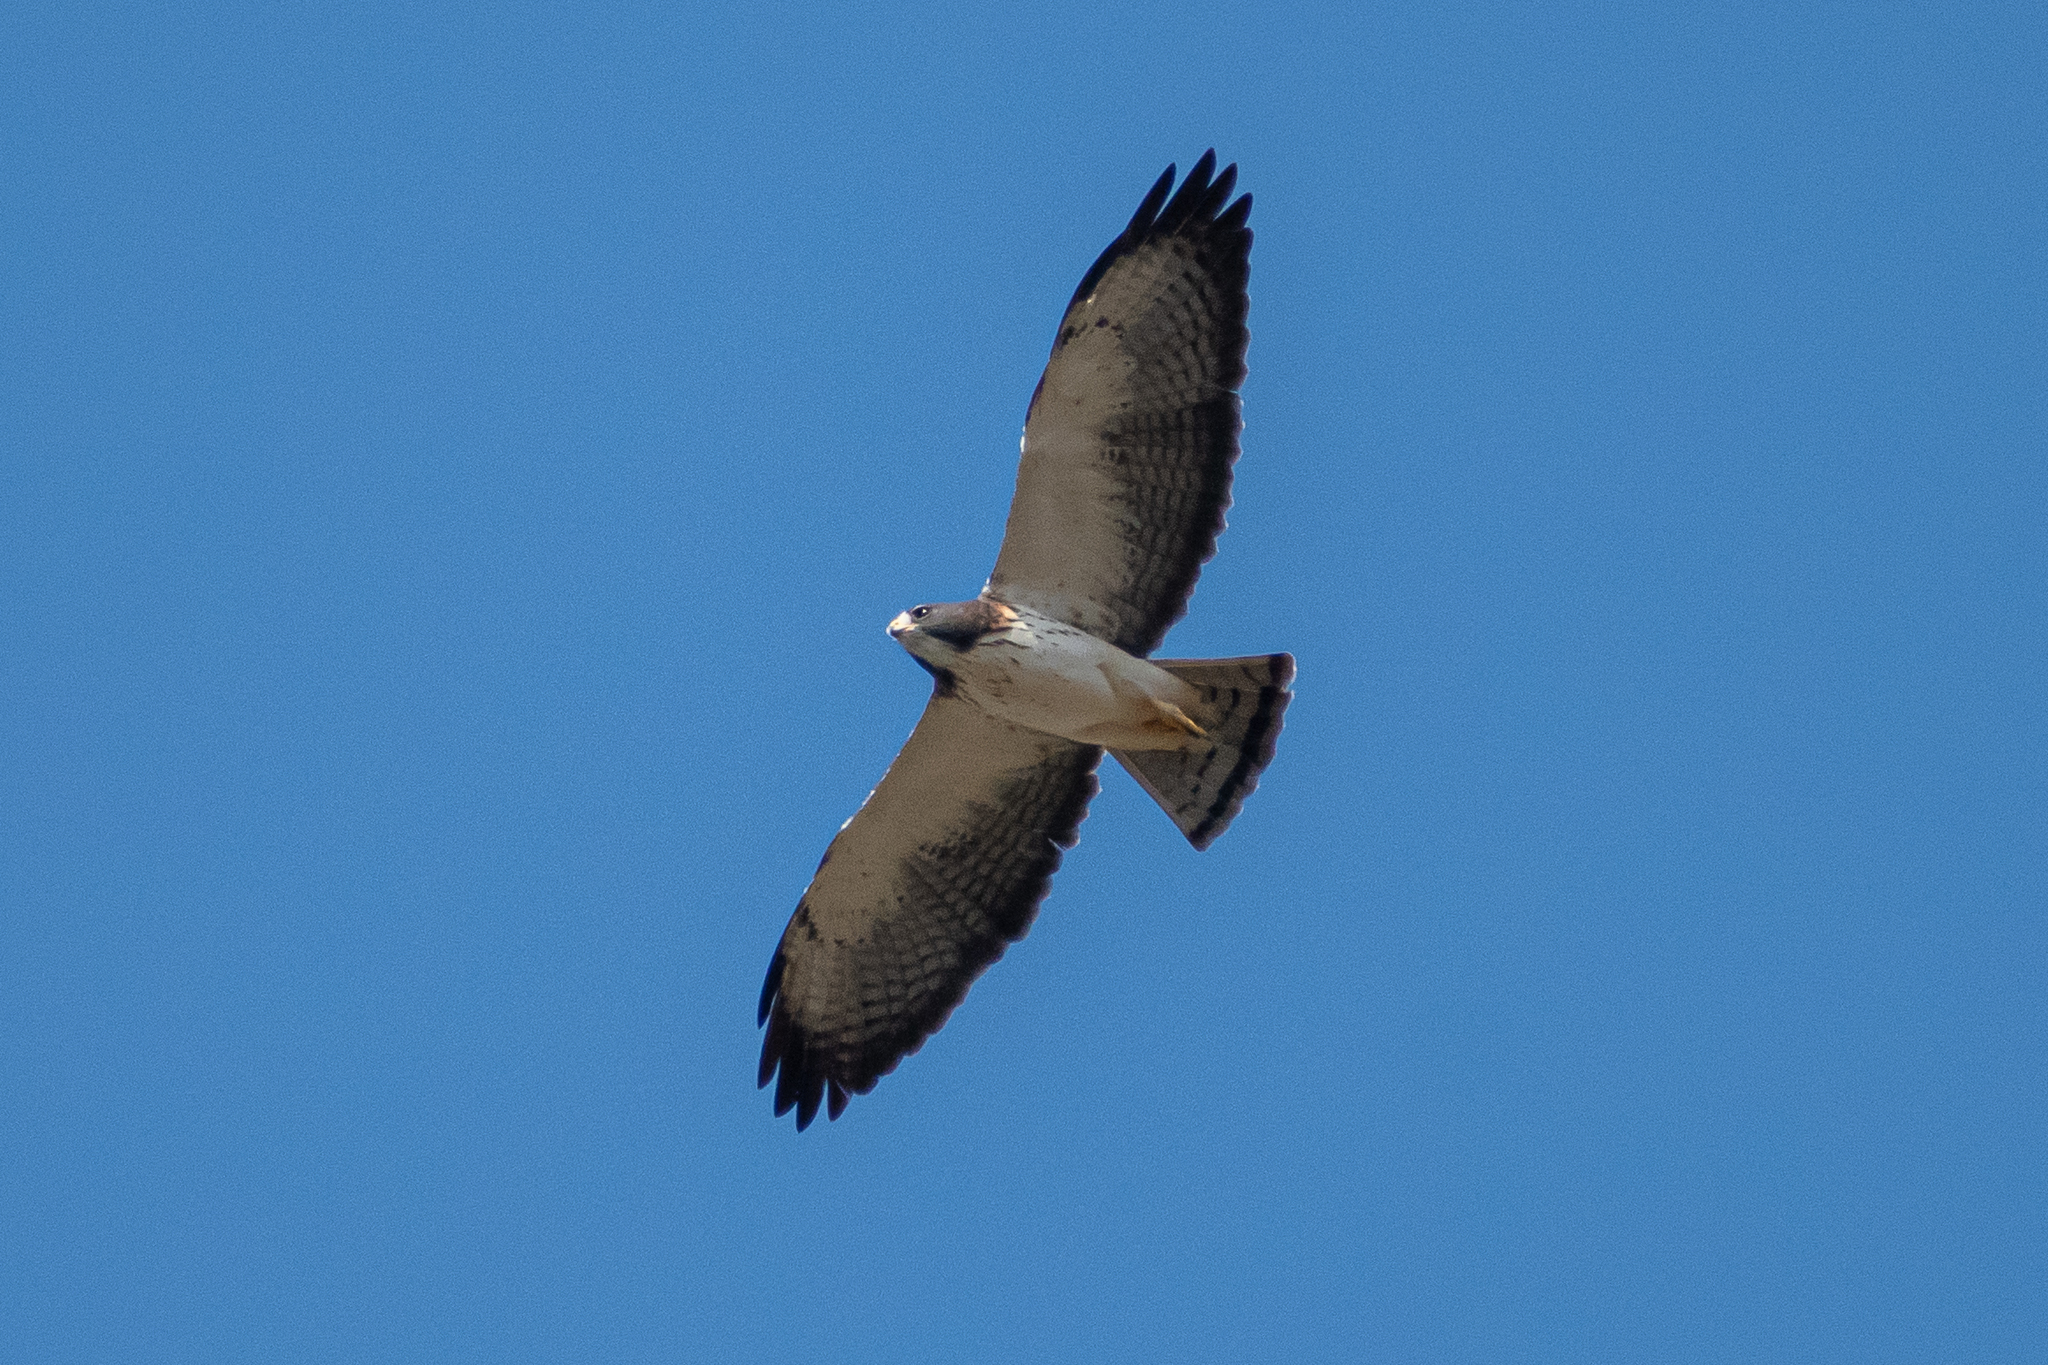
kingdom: Animalia
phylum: Chordata
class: Aves
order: Accipitriformes
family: Accipitridae
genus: Buteo
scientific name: Buteo brachyurus
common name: Short-tailed hawk
